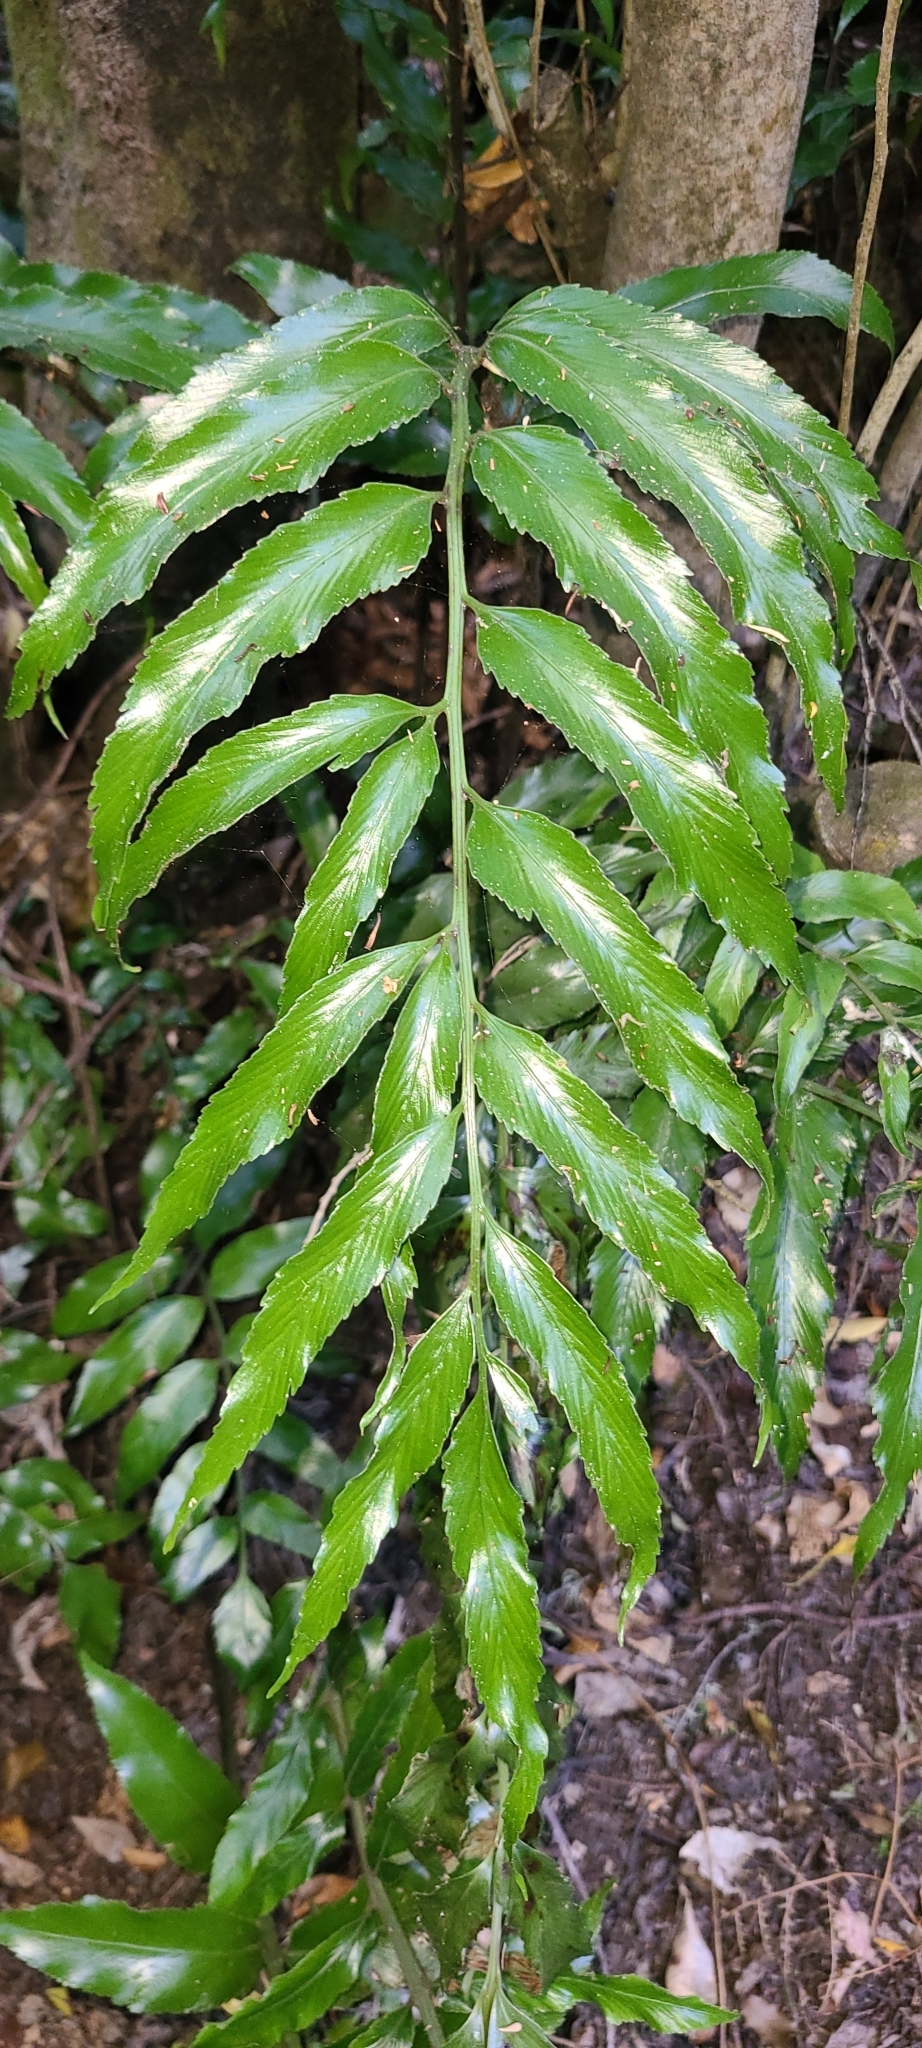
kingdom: Plantae
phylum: Tracheophyta
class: Polypodiopsida
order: Polypodiales
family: Aspleniaceae
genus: Asplenium
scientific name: Asplenium oblongifolium
